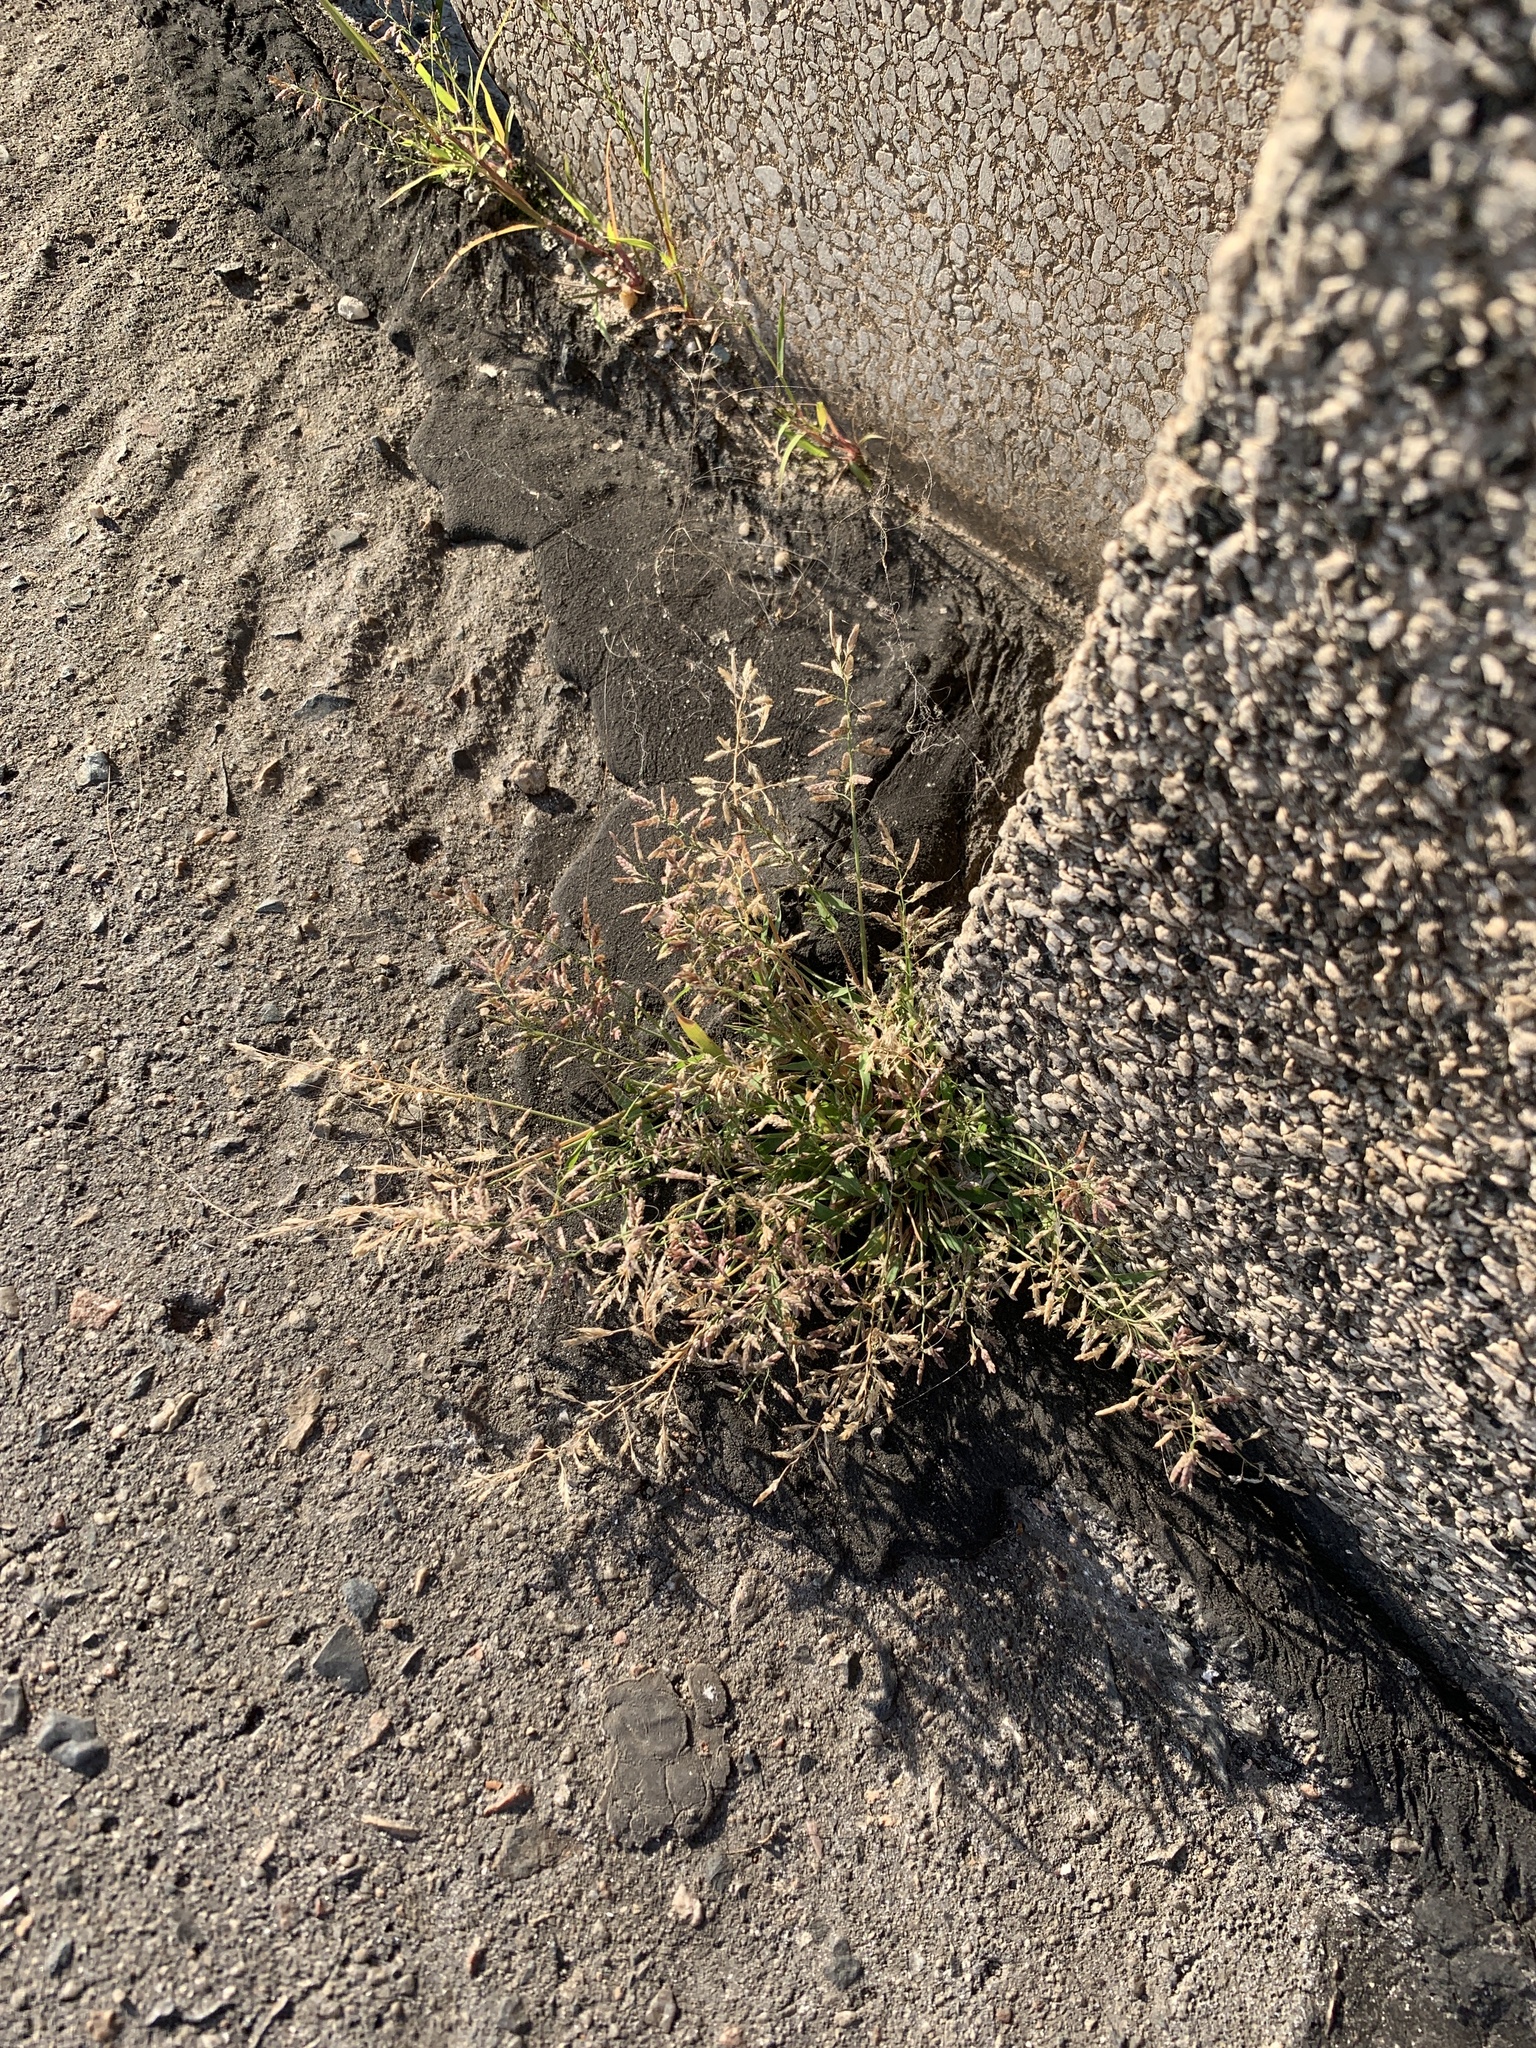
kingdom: Plantae
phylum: Tracheophyta
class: Liliopsida
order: Poales
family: Poaceae
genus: Eragrostis
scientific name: Eragrostis minor
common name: Small love-grass
